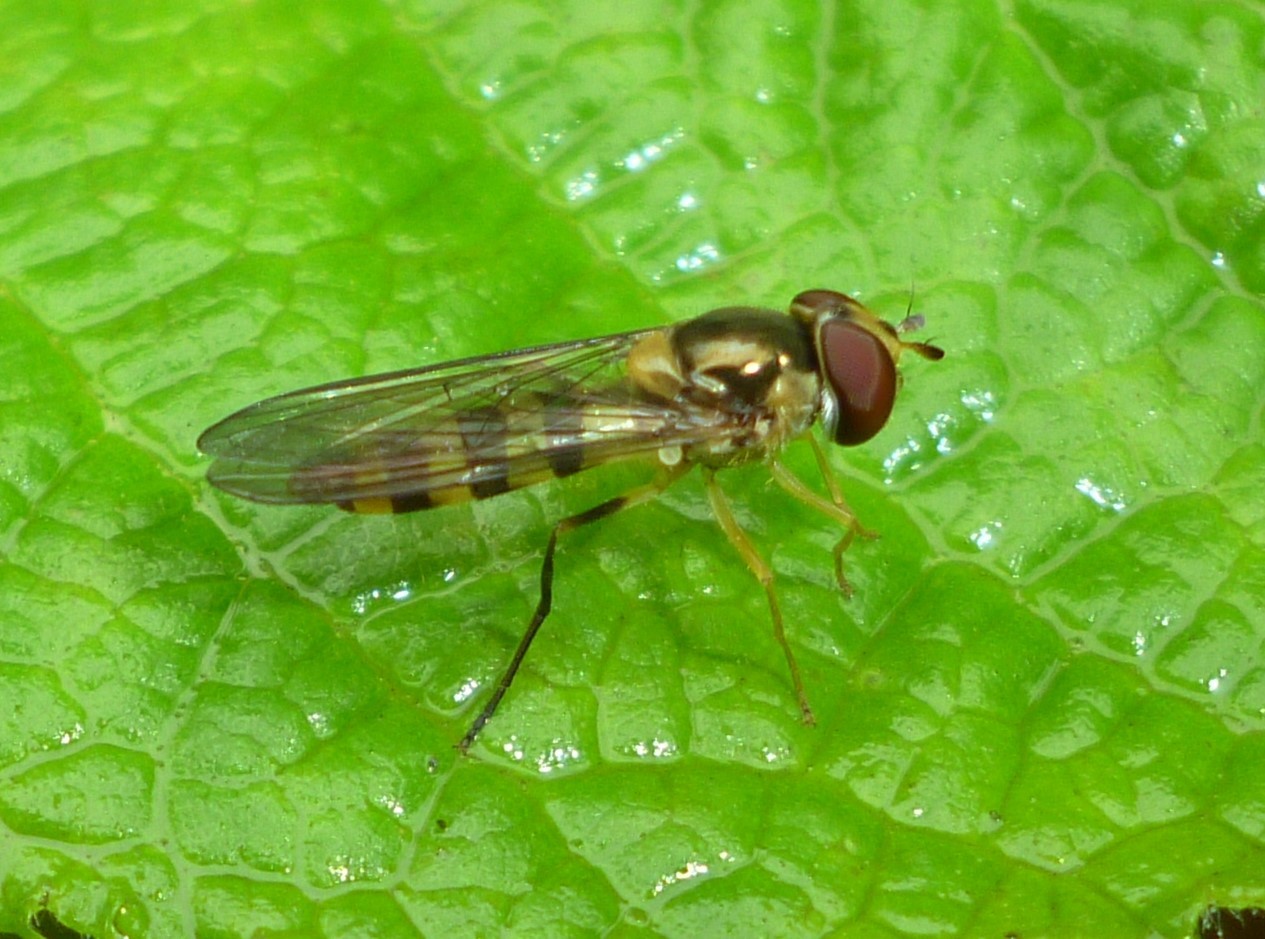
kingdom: Animalia
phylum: Arthropoda
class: Insecta
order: Diptera
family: Syrphidae
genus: Meliscaeva
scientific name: Meliscaeva cinctella
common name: American thintail fly
